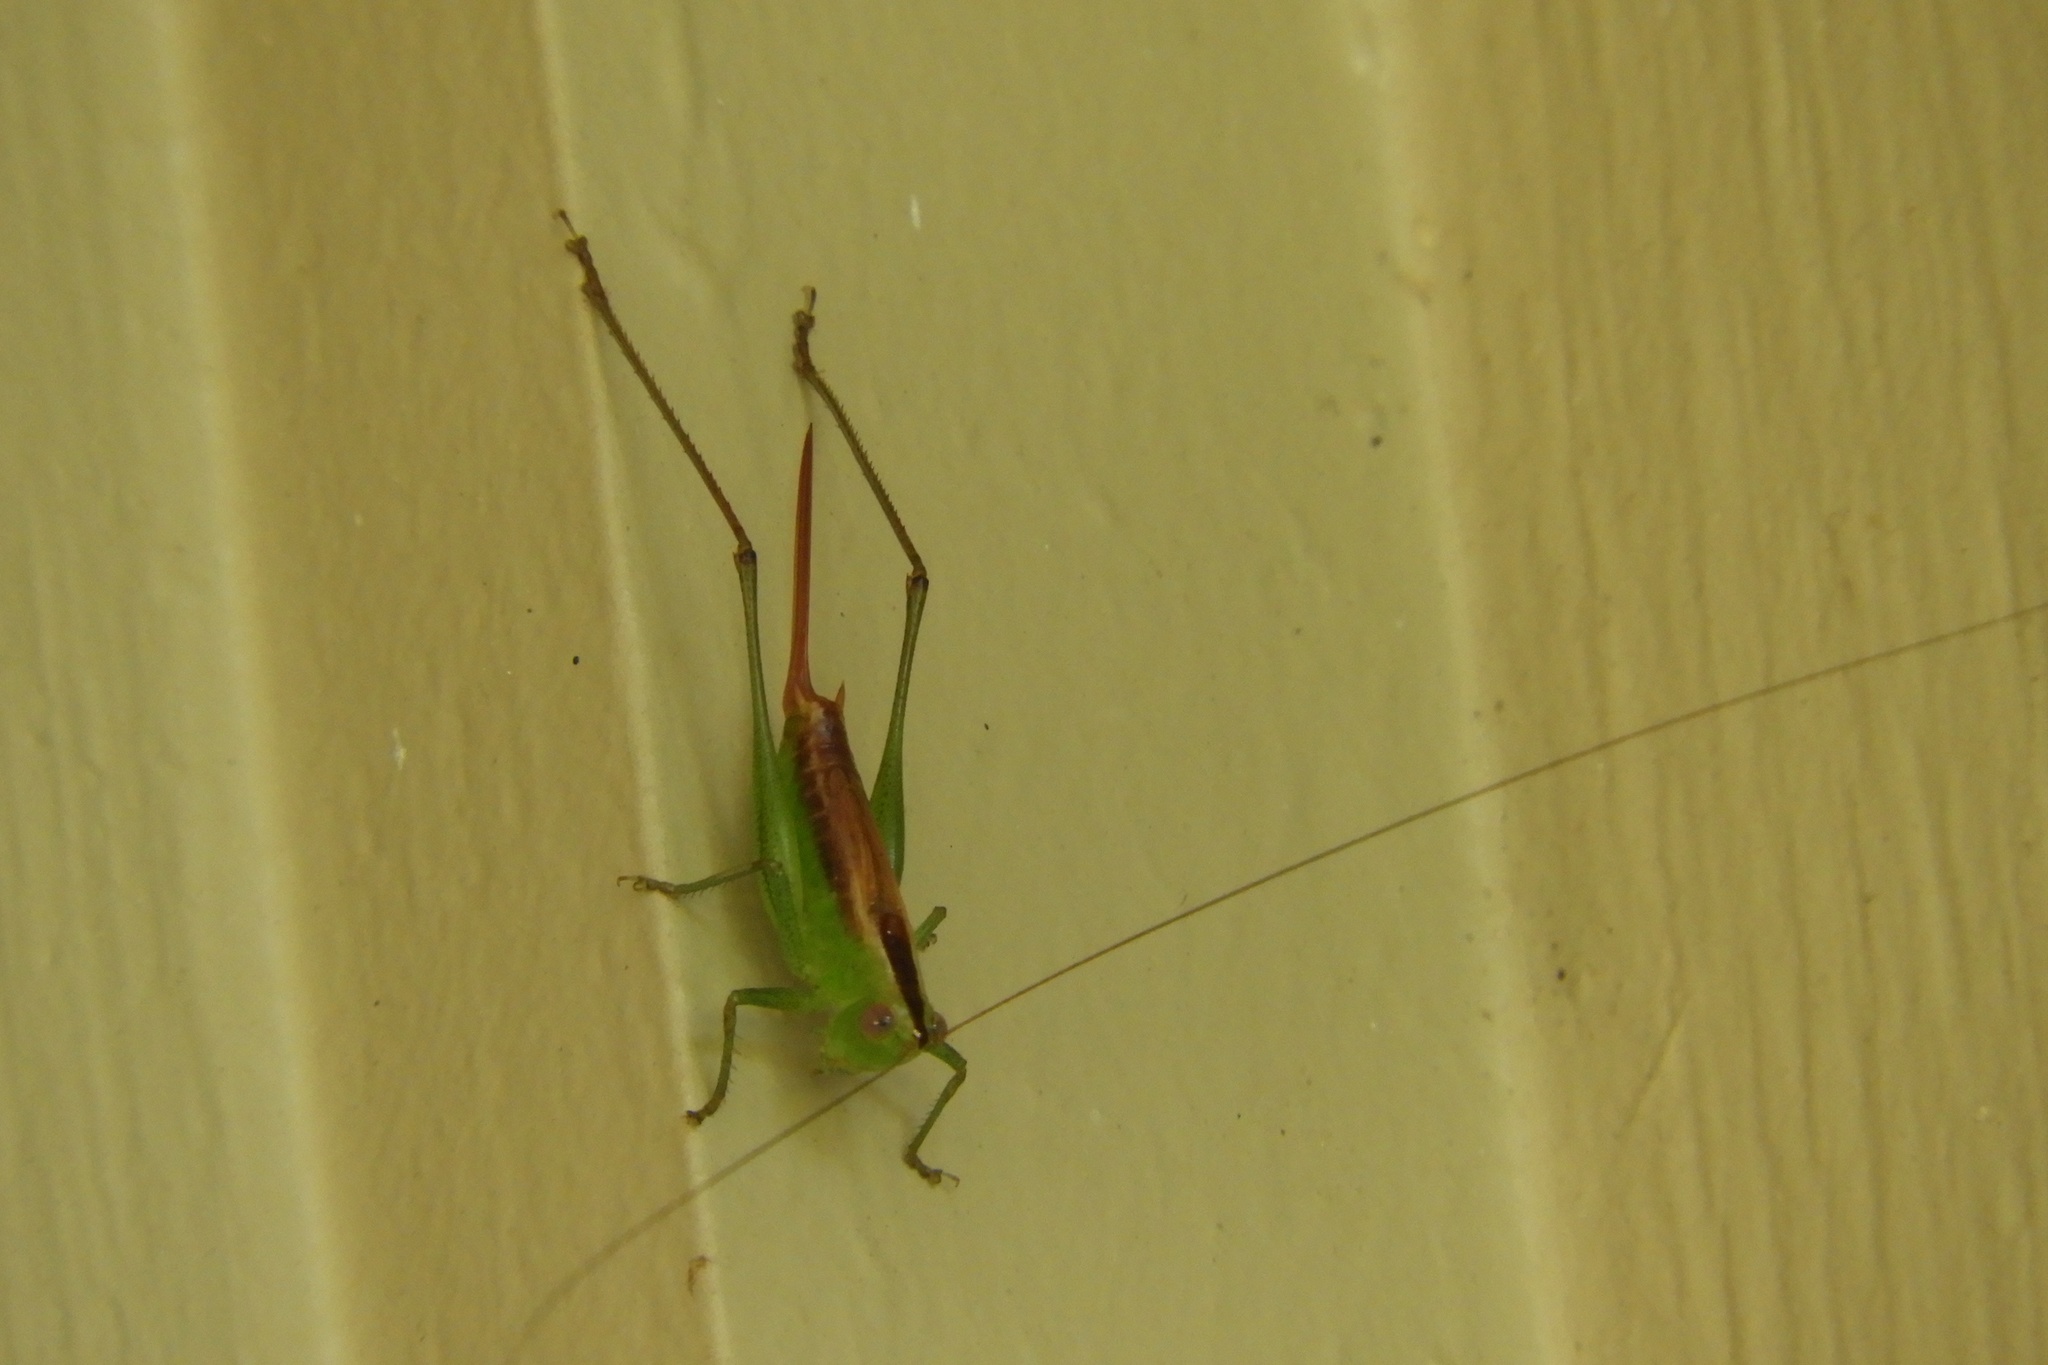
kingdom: Animalia
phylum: Arthropoda
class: Insecta
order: Orthoptera
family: Tettigoniidae
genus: Conocephalus
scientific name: Conocephalus brevipennis
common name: Short-winged meadow katydid
